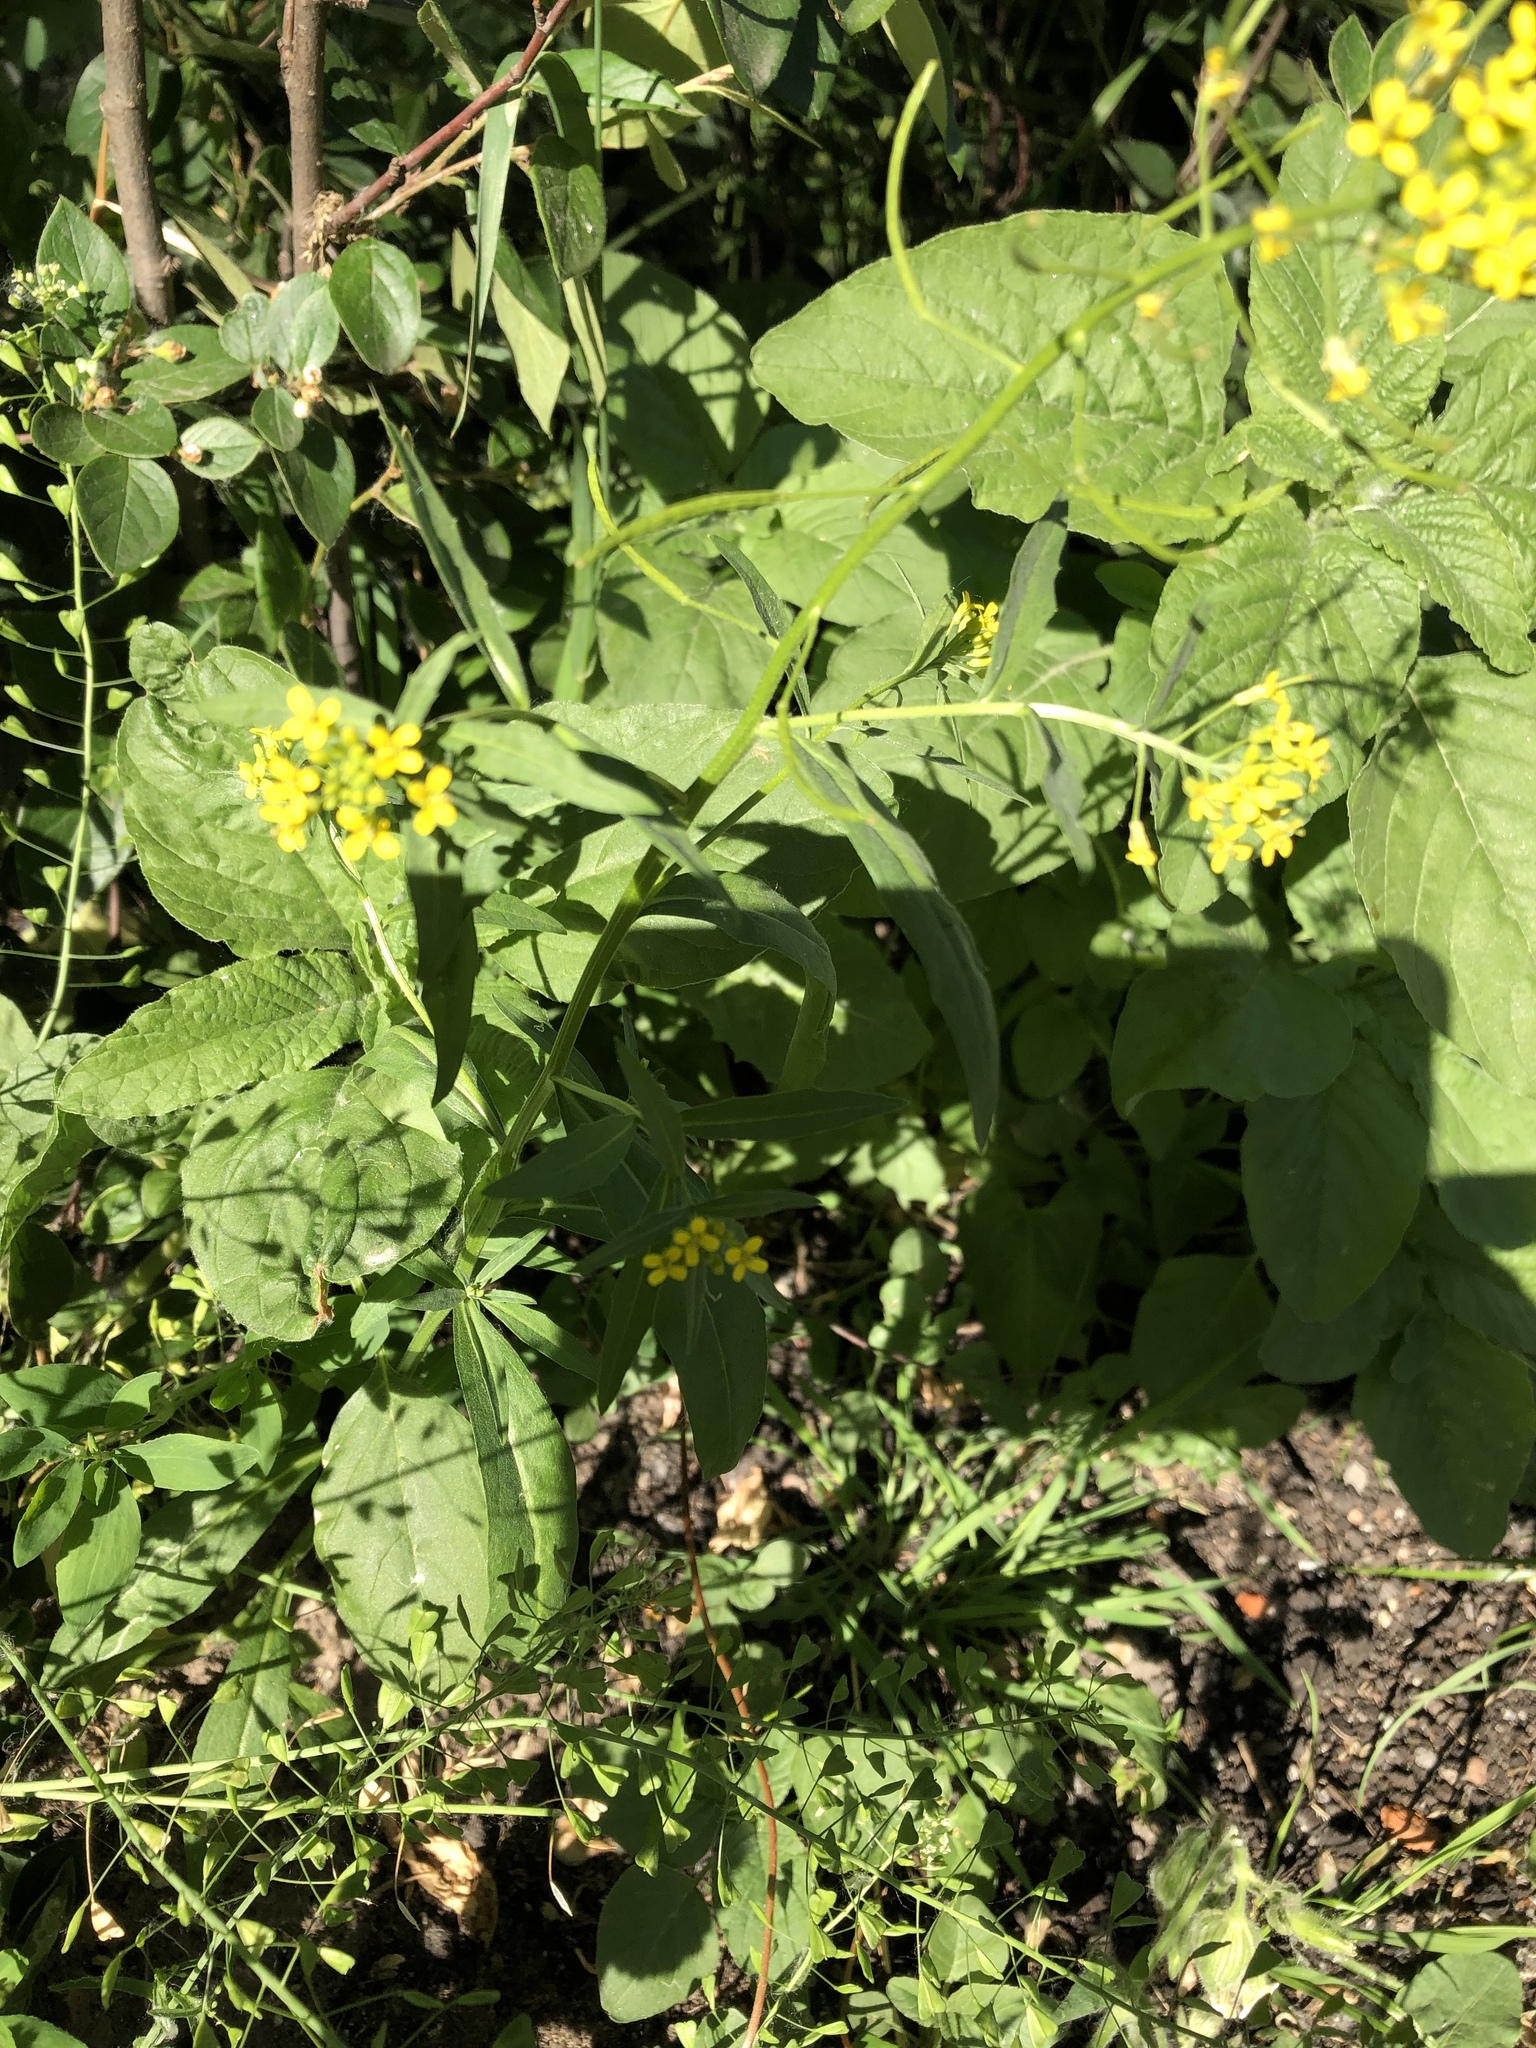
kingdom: Plantae
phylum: Tracheophyta
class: Magnoliopsida
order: Brassicales
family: Brassicaceae
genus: Erysimum
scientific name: Erysimum cheiranthoides
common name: Treacle mustard
